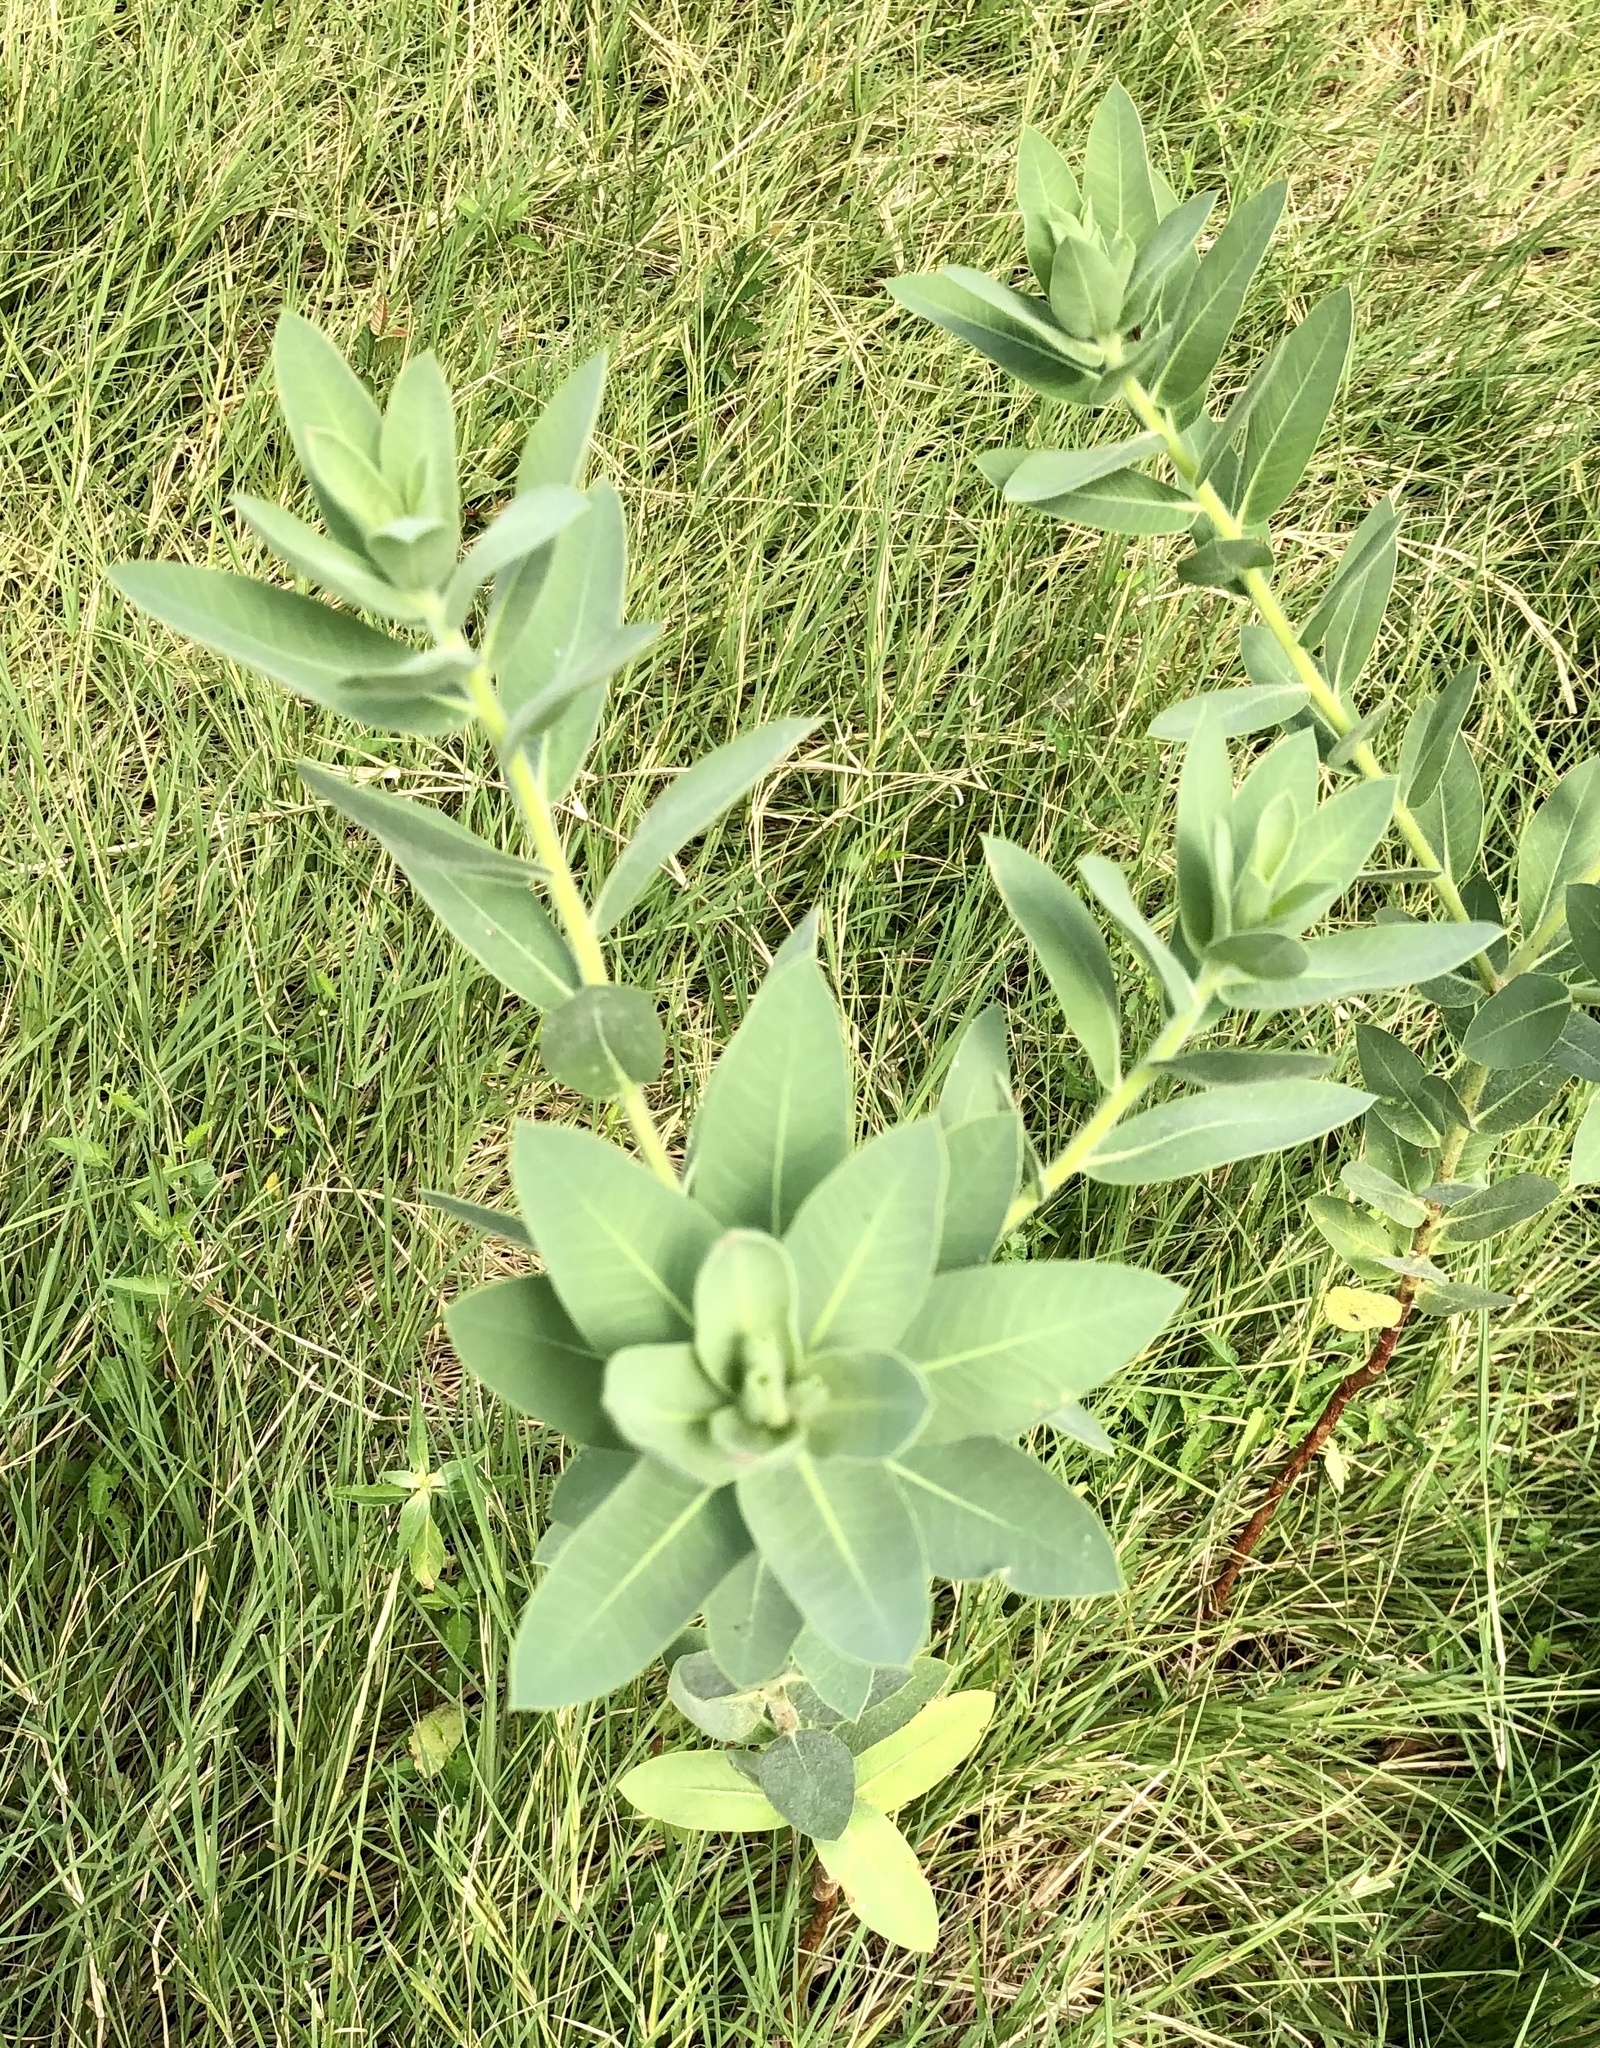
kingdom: Plantae
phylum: Tracheophyta
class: Magnoliopsida
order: Malpighiales
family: Euphorbiaceae
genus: Euphorbia
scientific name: Euphorbia bicolor
